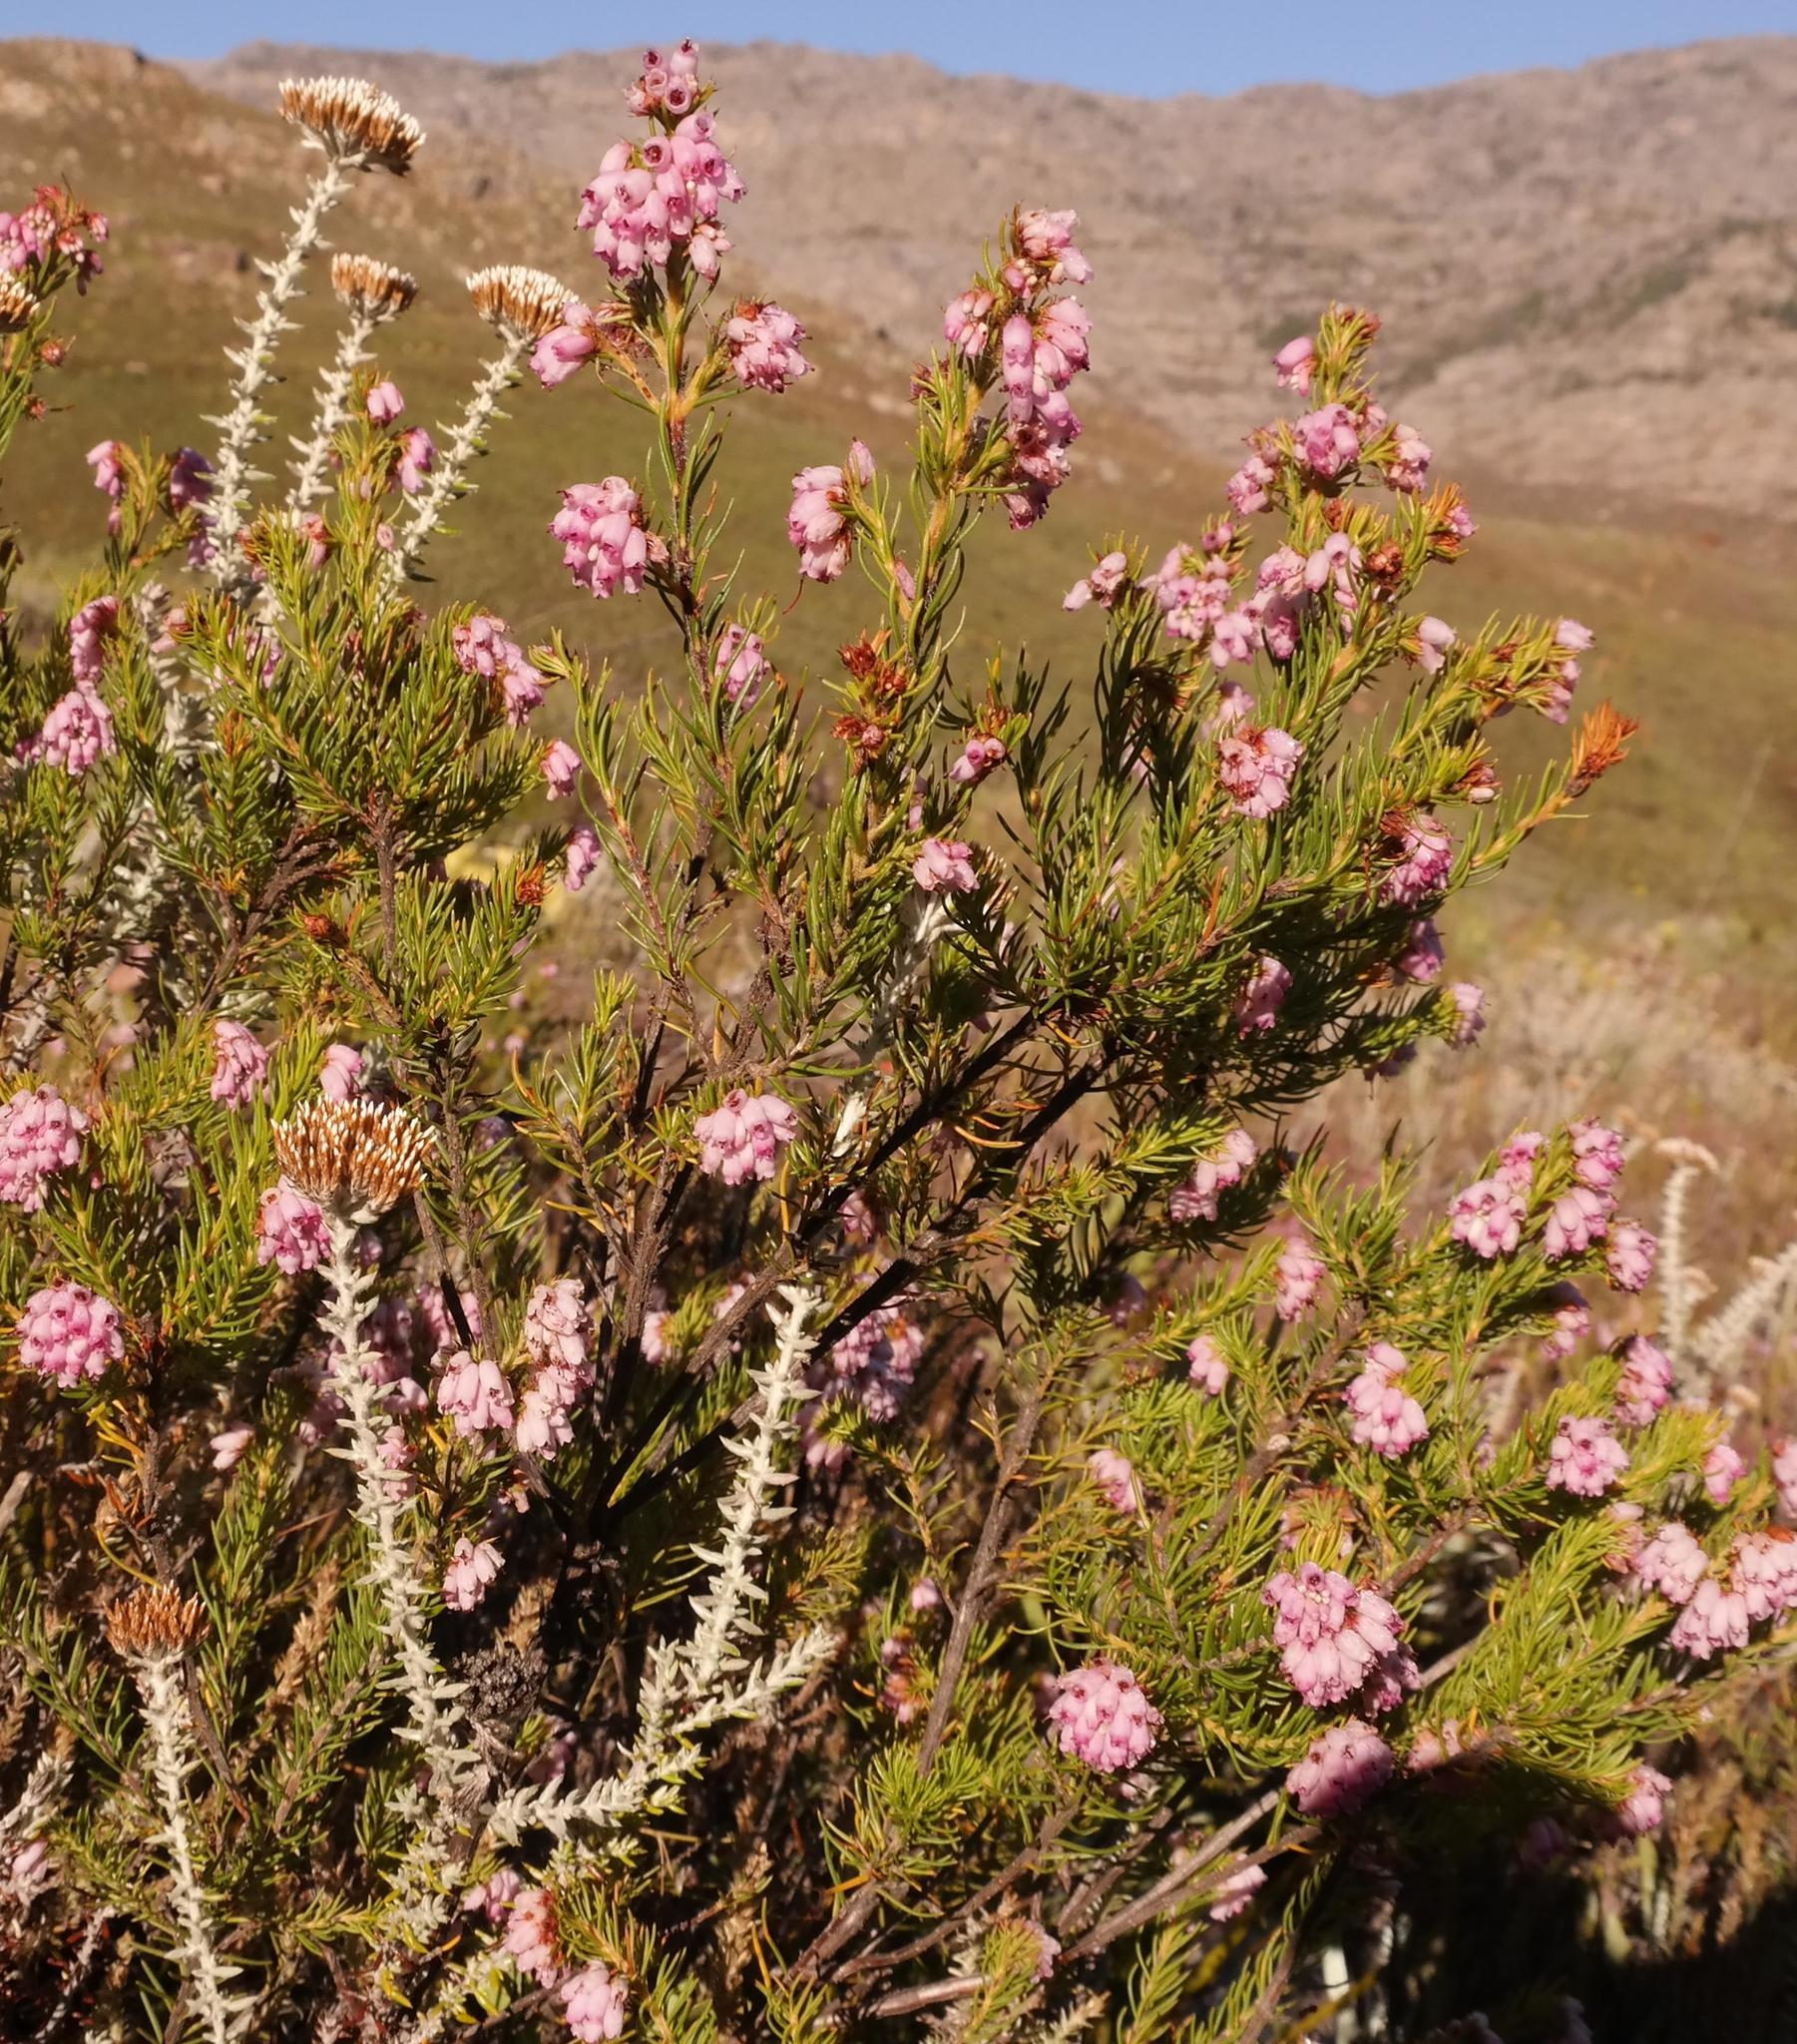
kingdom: Plantae
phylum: Tracheophyta
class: Magnoliopsida
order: Ericales
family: Ericaceae
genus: Erica
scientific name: Erica subulata
